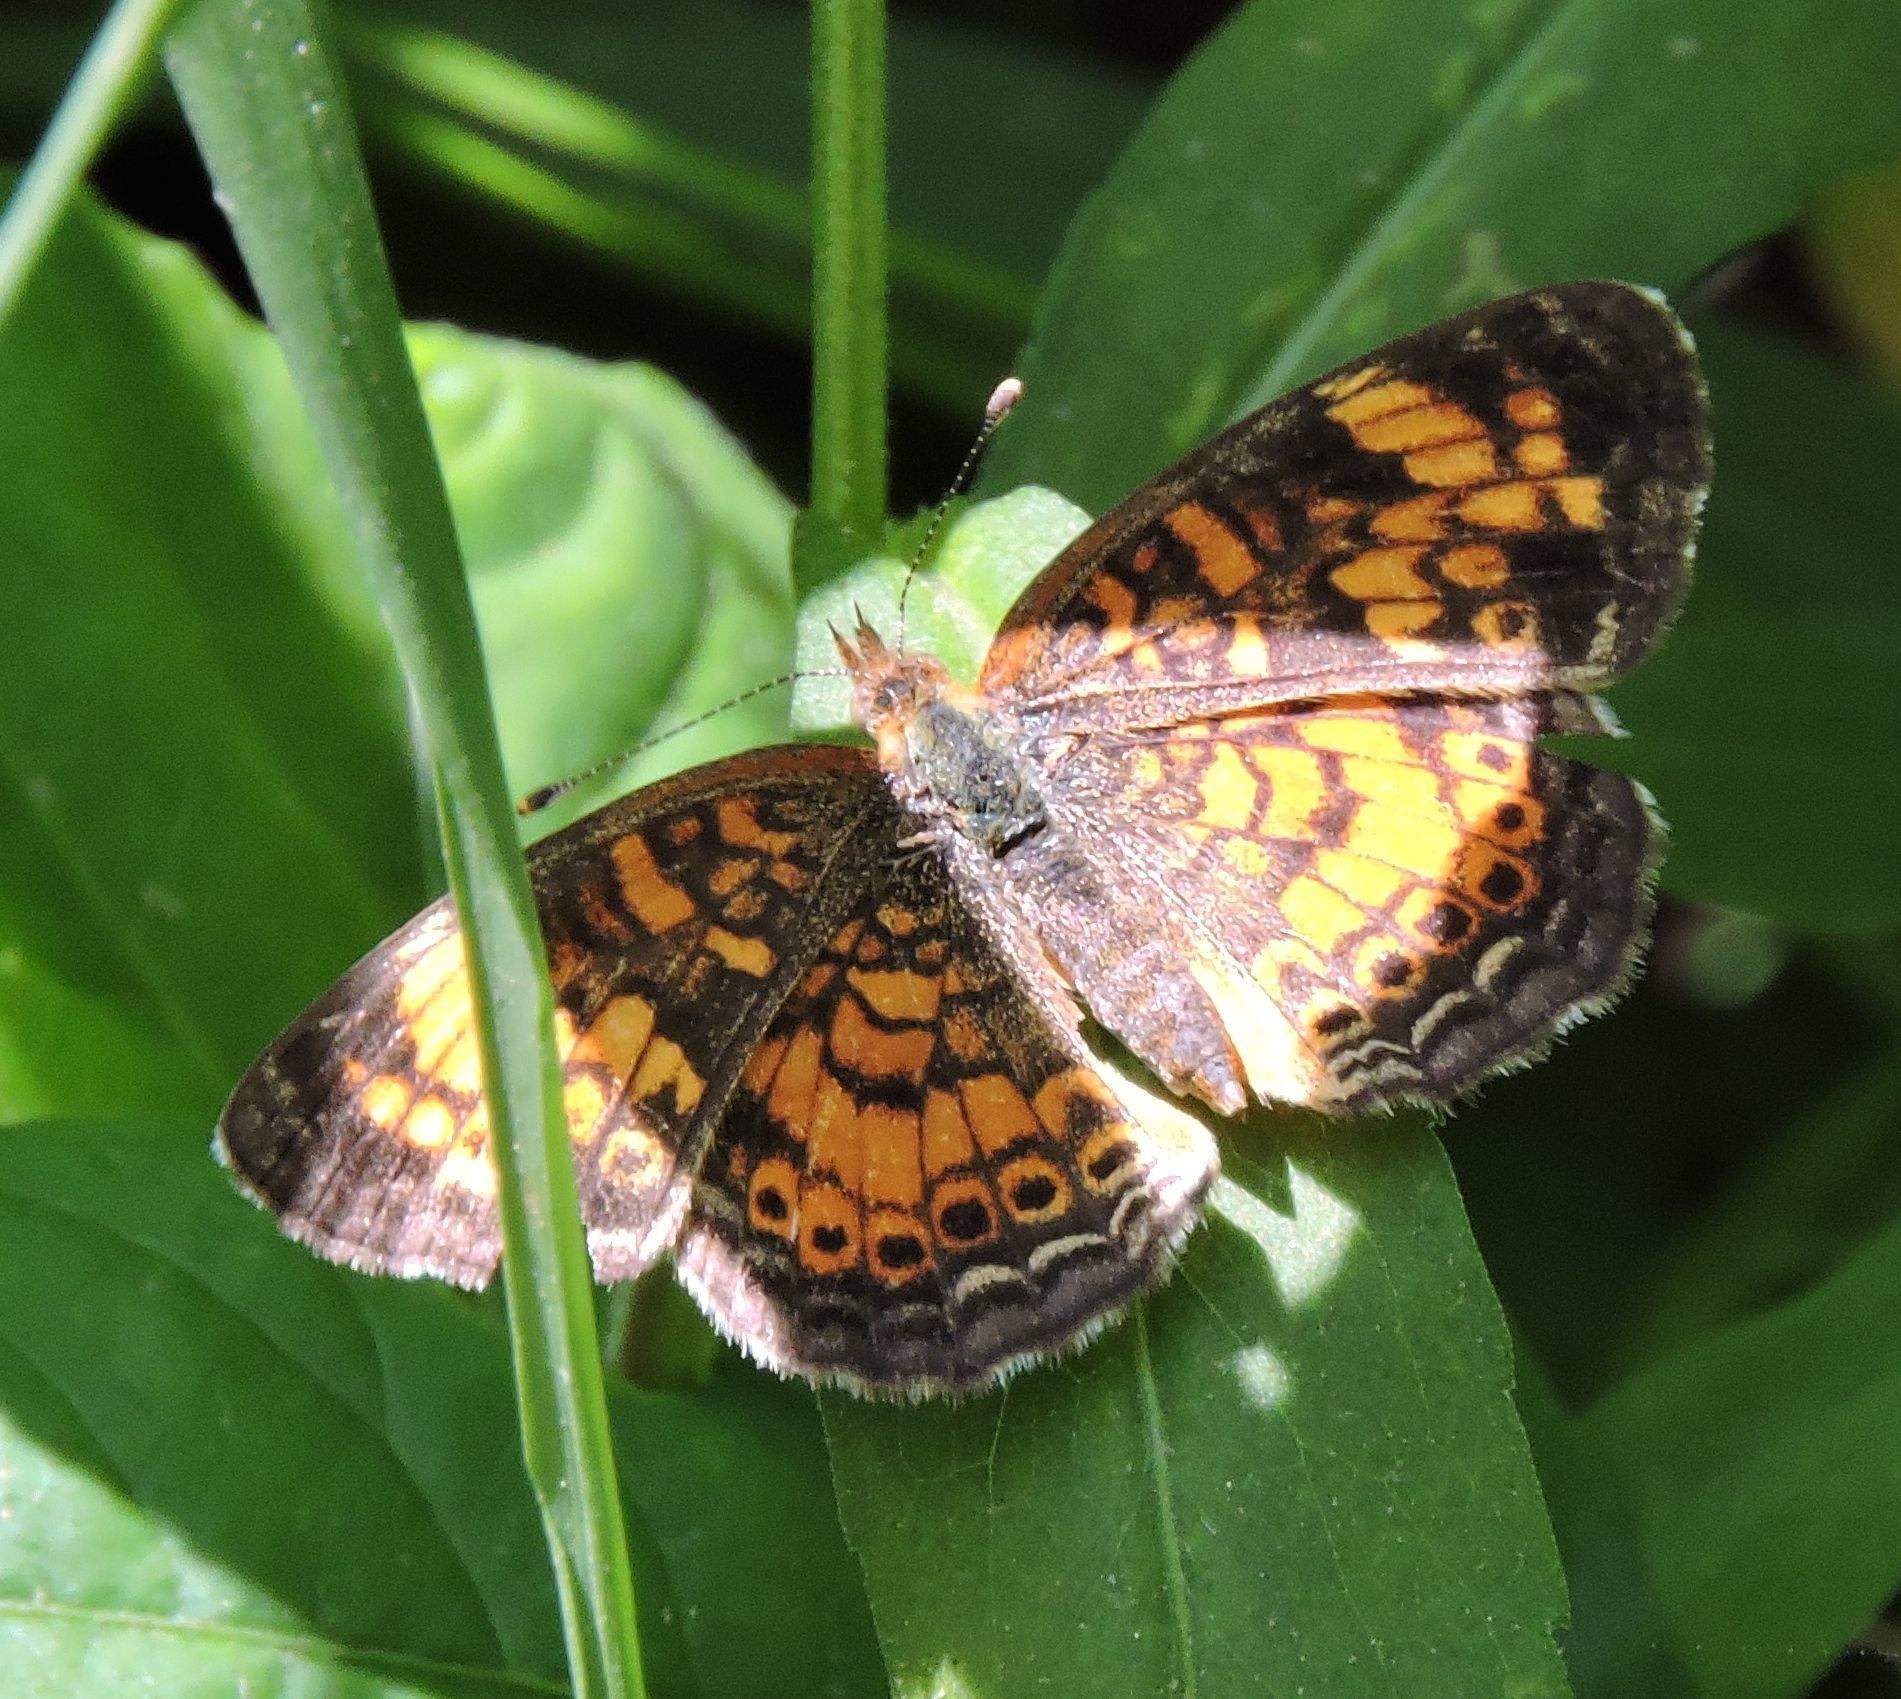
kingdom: Animalia
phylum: Arthropoda
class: Insecta
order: Lepidoptera
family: Nymphalidae
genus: Phyciodes
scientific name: Phyciodes tharos
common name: Pearl crescent
